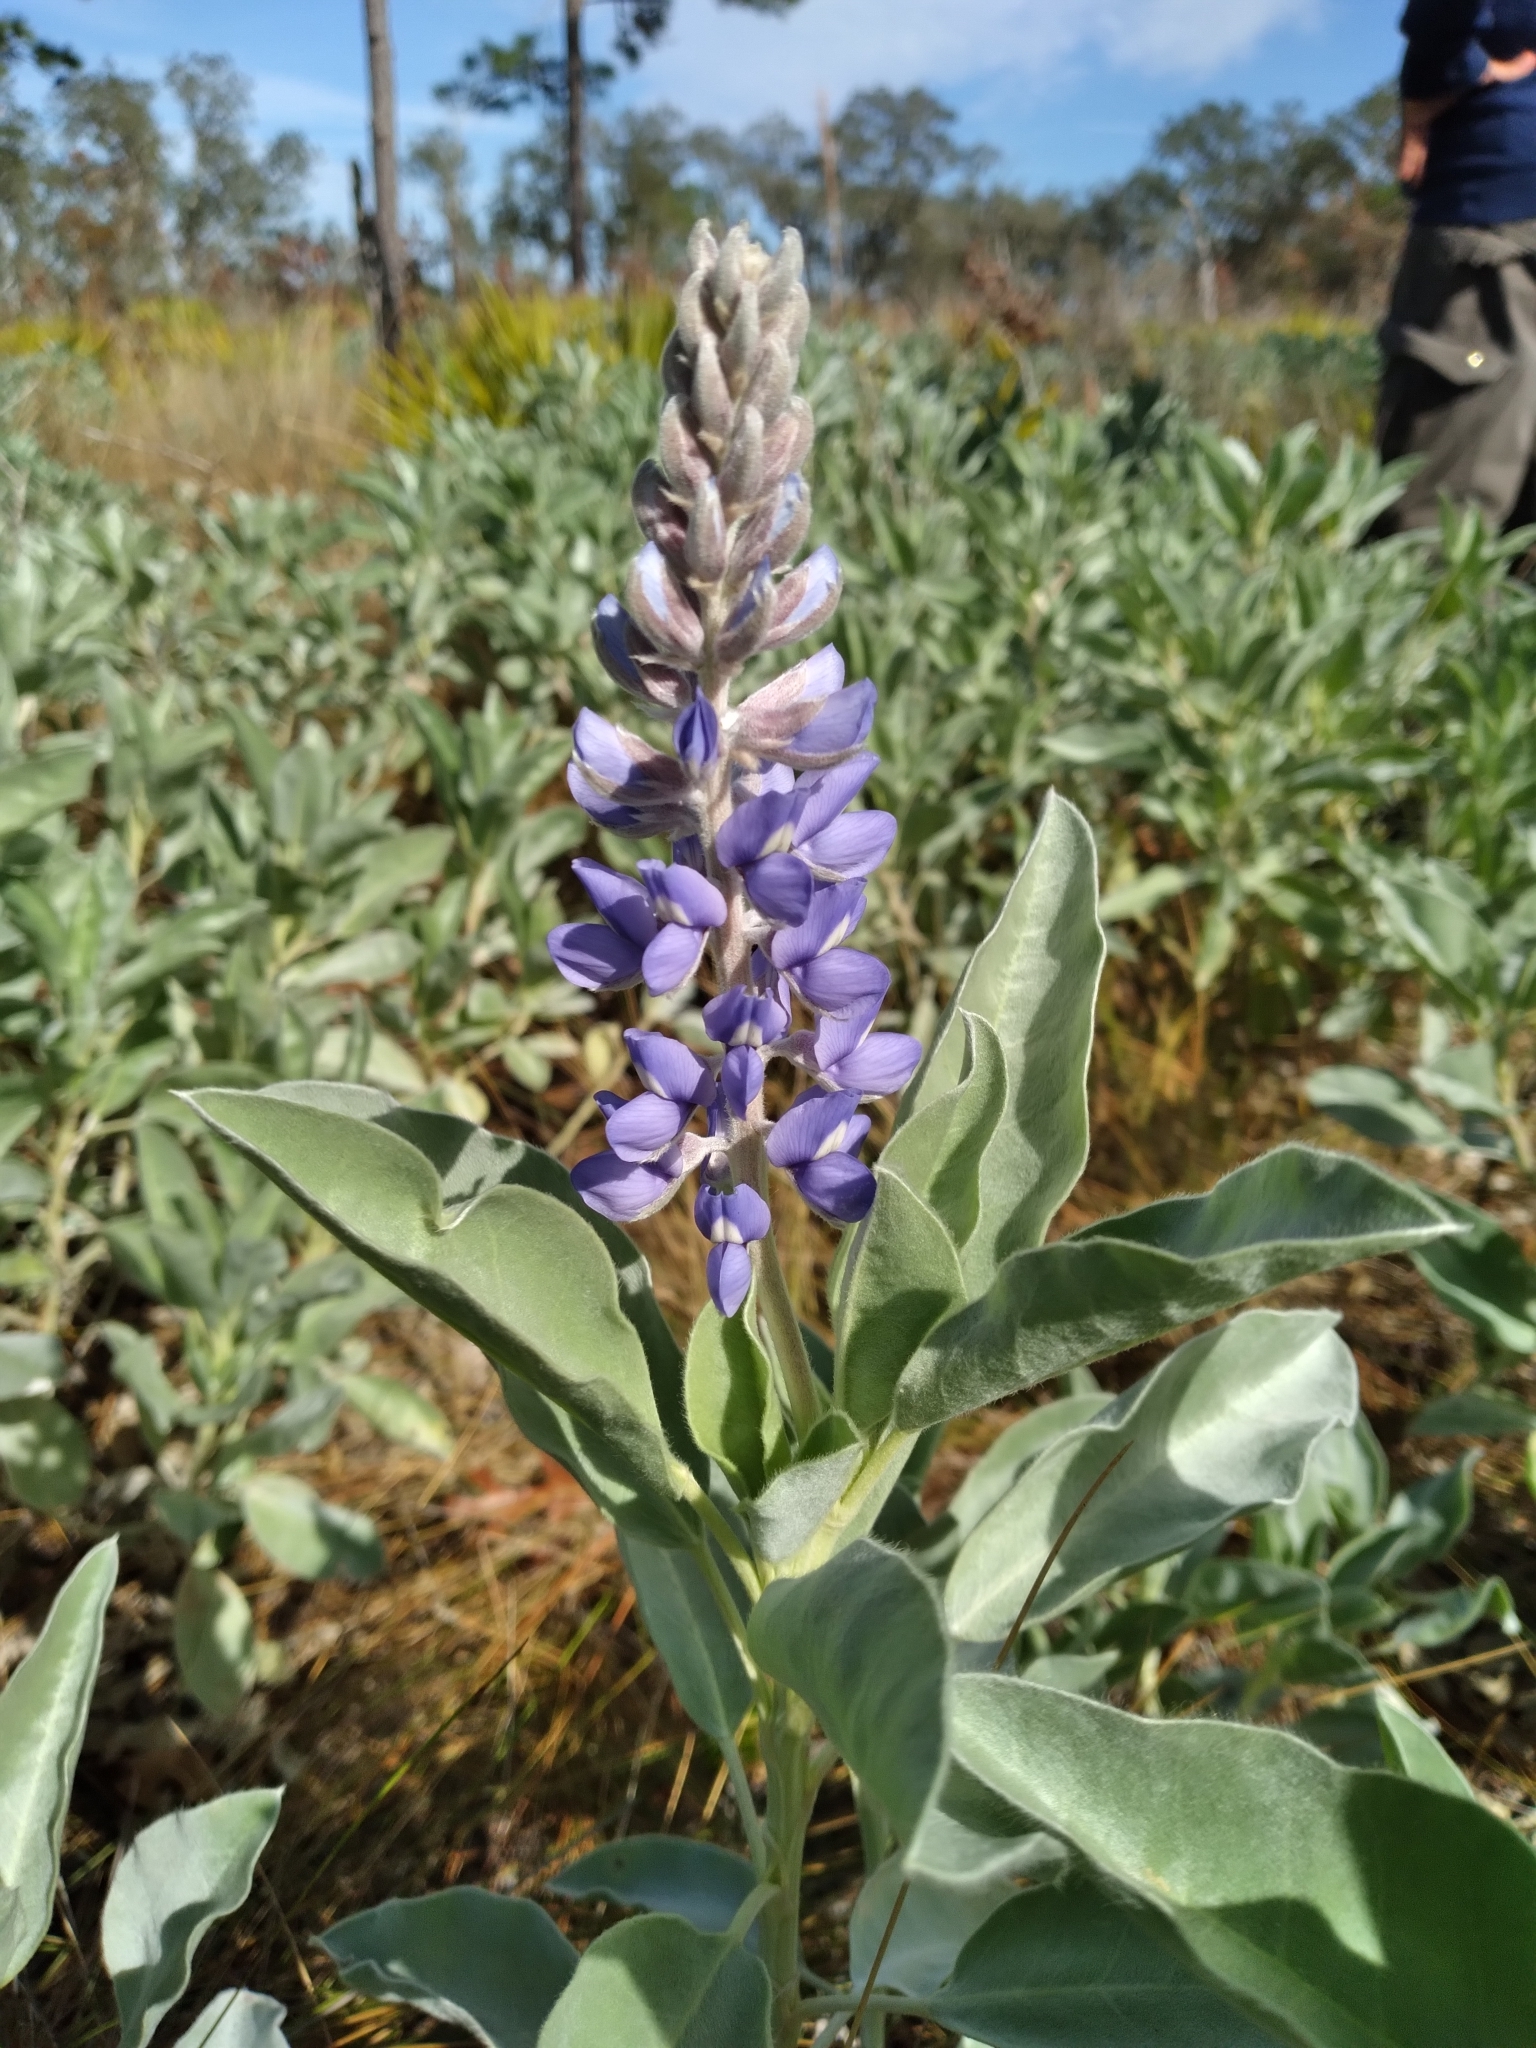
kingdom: Plantae
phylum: Tracheophyta
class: Magnoliopsida
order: Fabales
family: Fabaceae
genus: Lupinus
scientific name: Lupinus cumulicola
